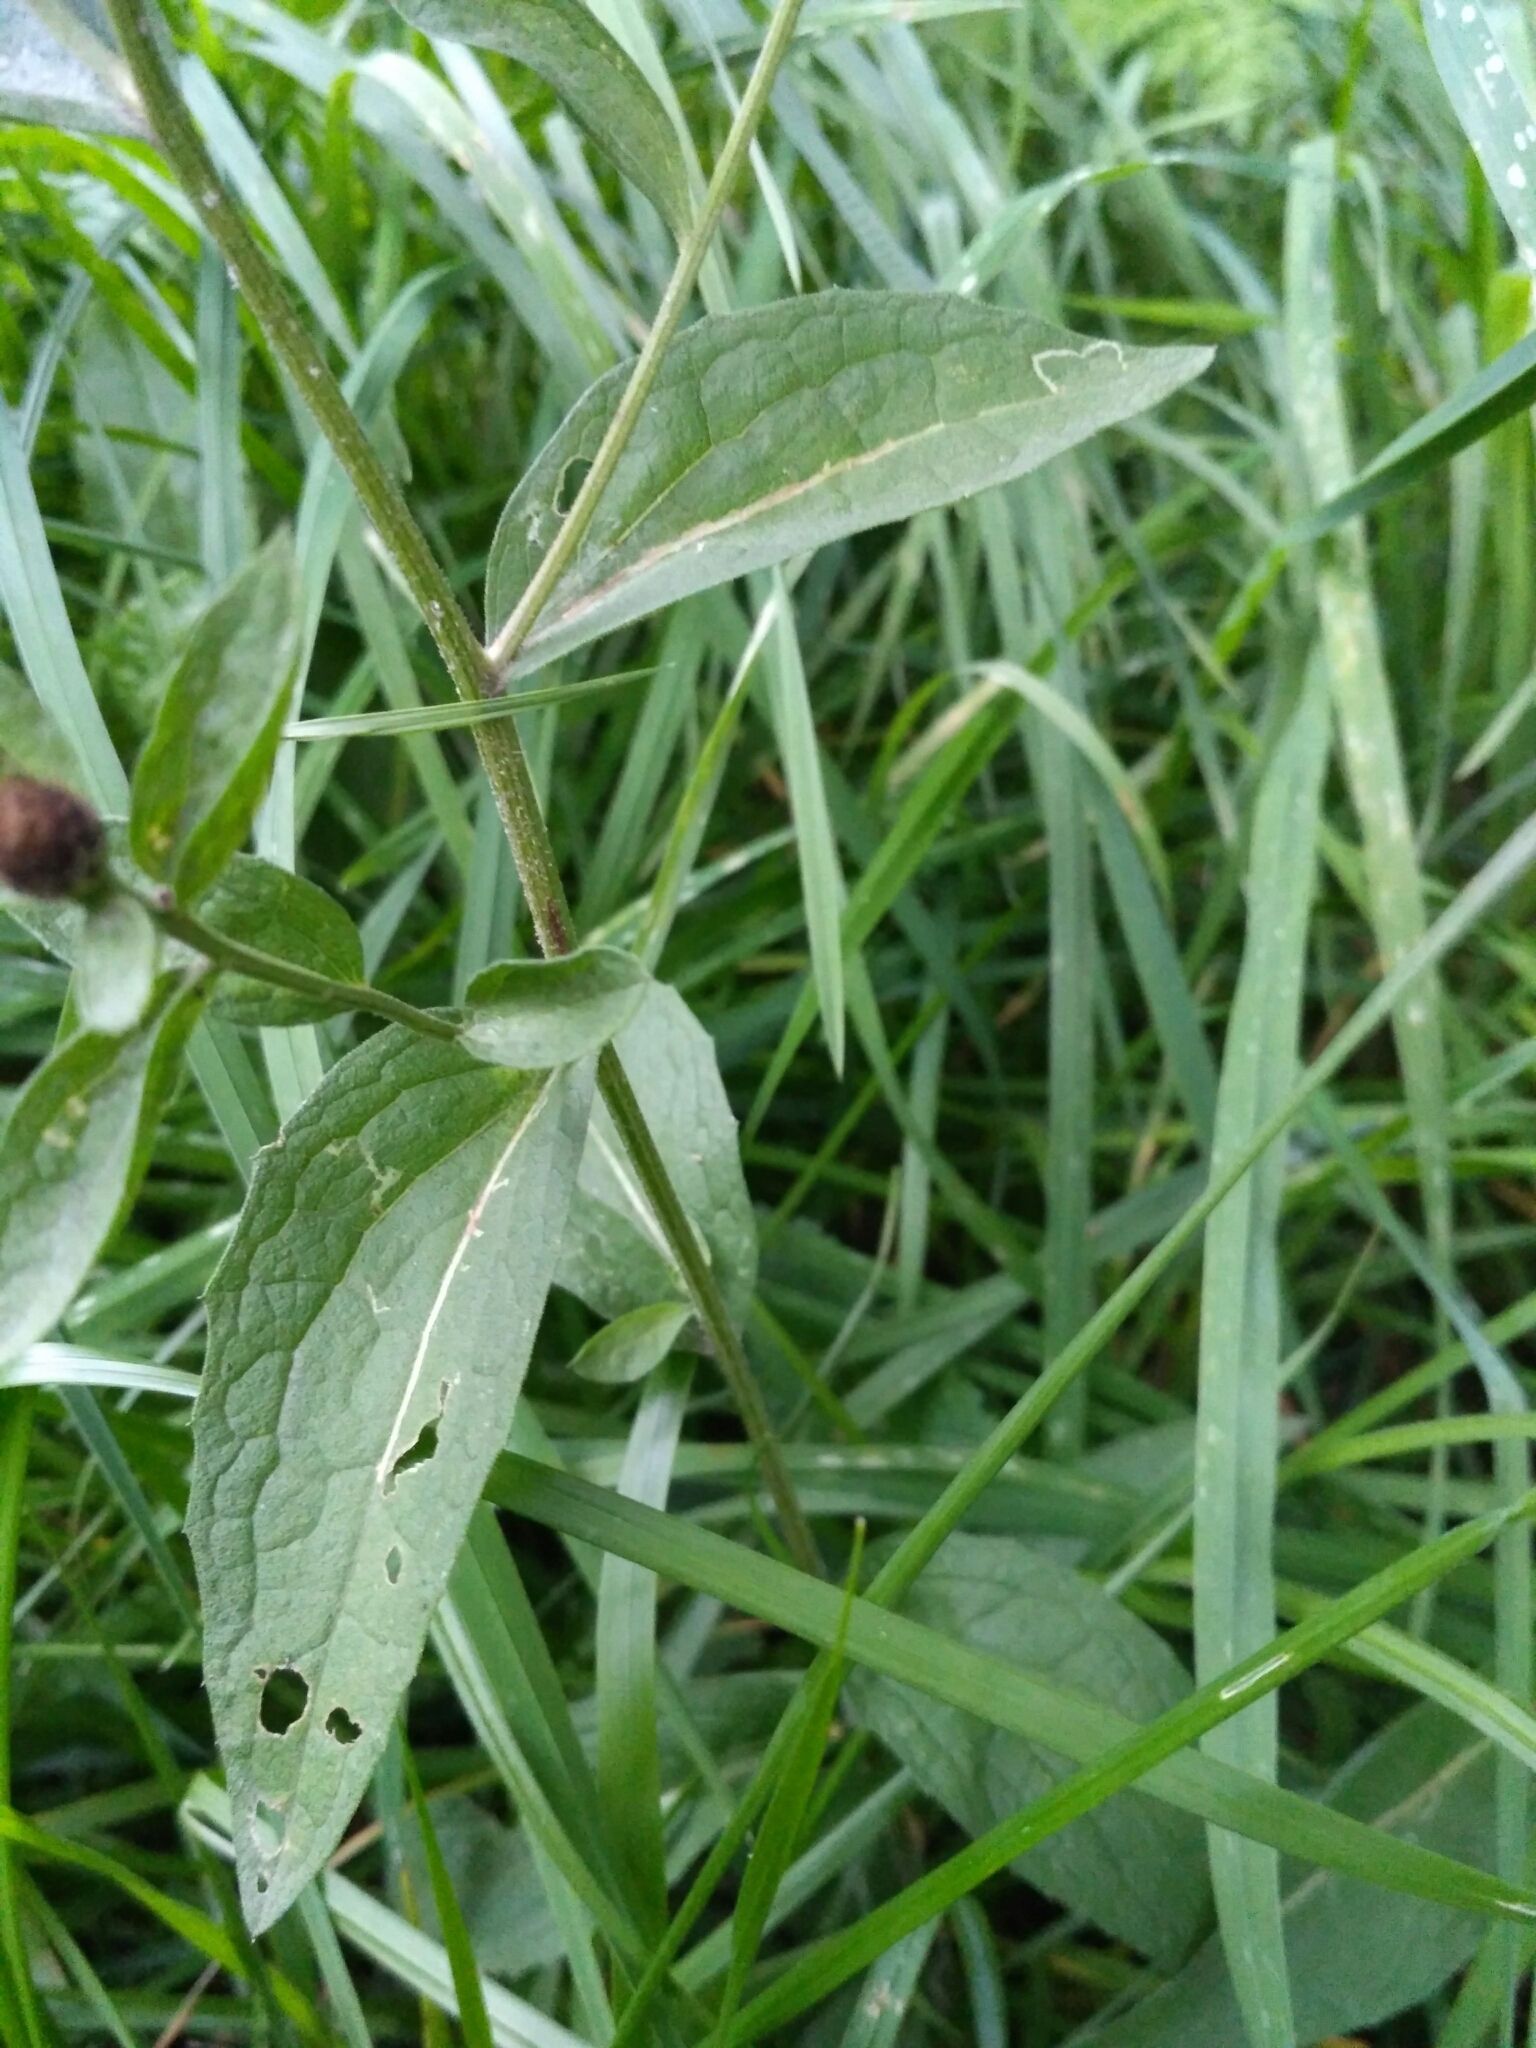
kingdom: Plantae
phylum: Tracheophyta
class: Magnoliopsida
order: Asterales
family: Asteraceae
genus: Centaurea
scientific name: Centaurea jacea
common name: Brown knapweed
